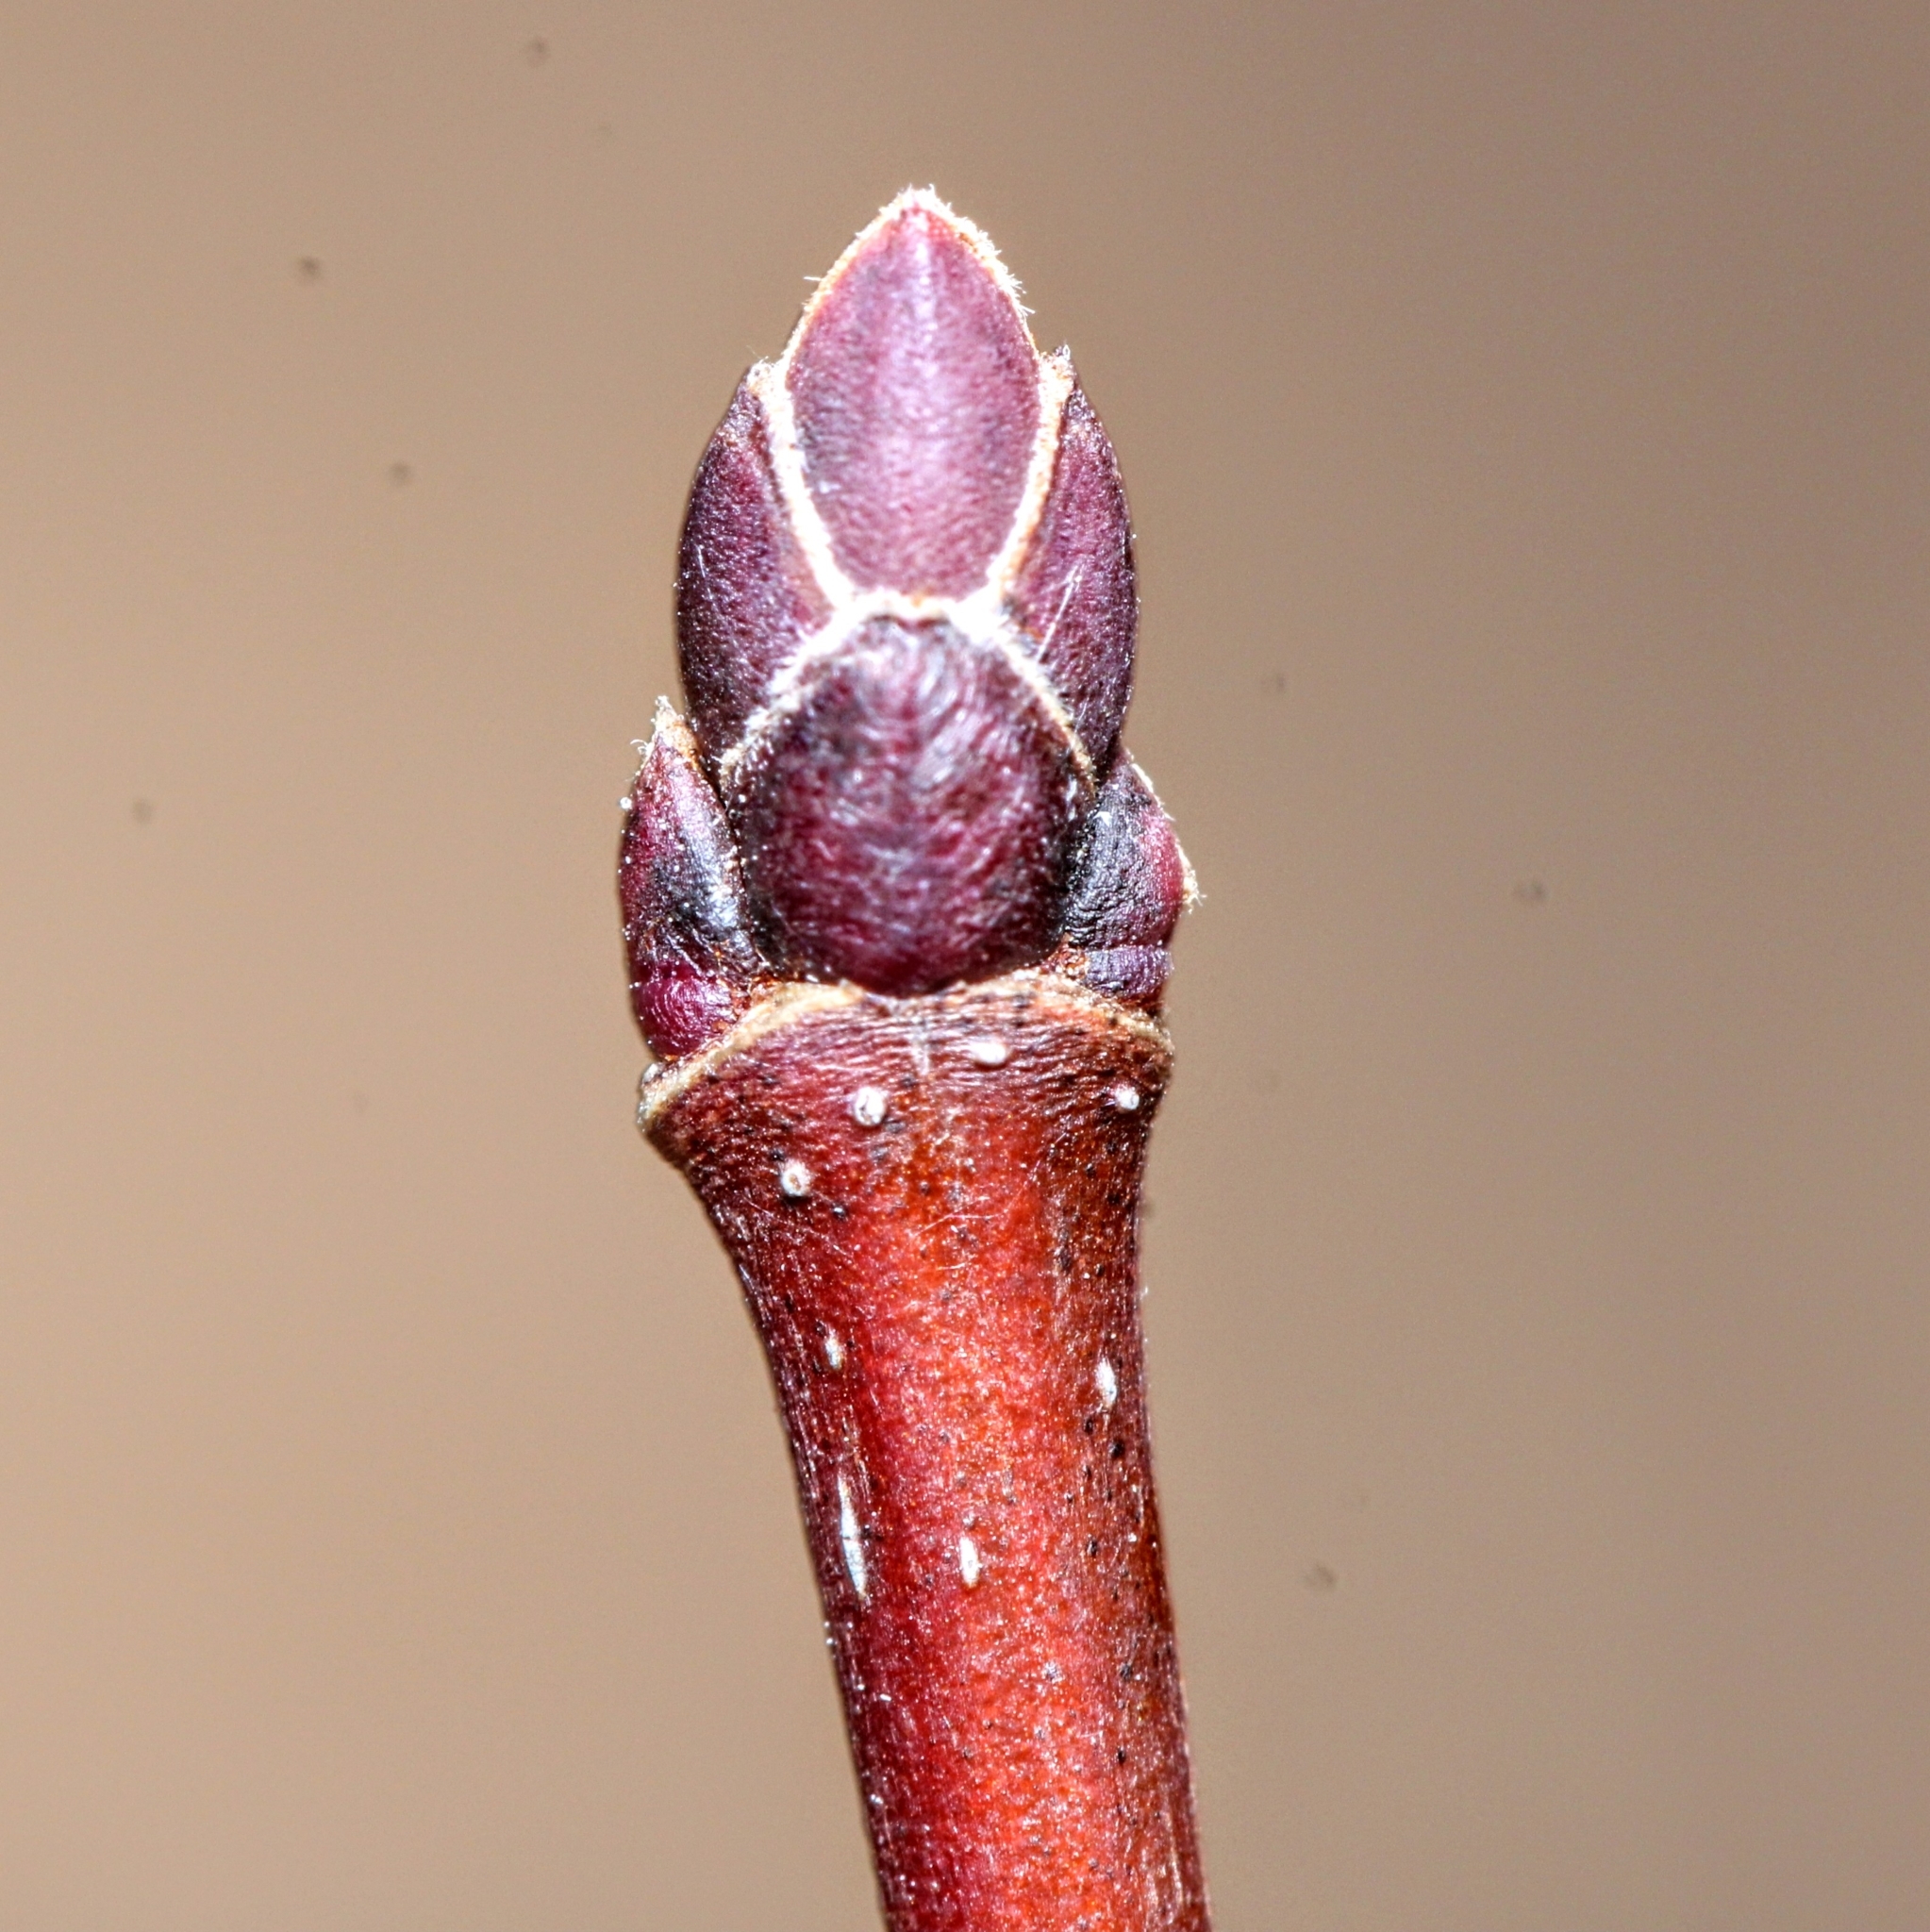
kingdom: Plantae
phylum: Tracheophyta
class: Magnoliopsida
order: Sapindales
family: Sapindaceae
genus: Acer
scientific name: Acer rubrum
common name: Red maple
